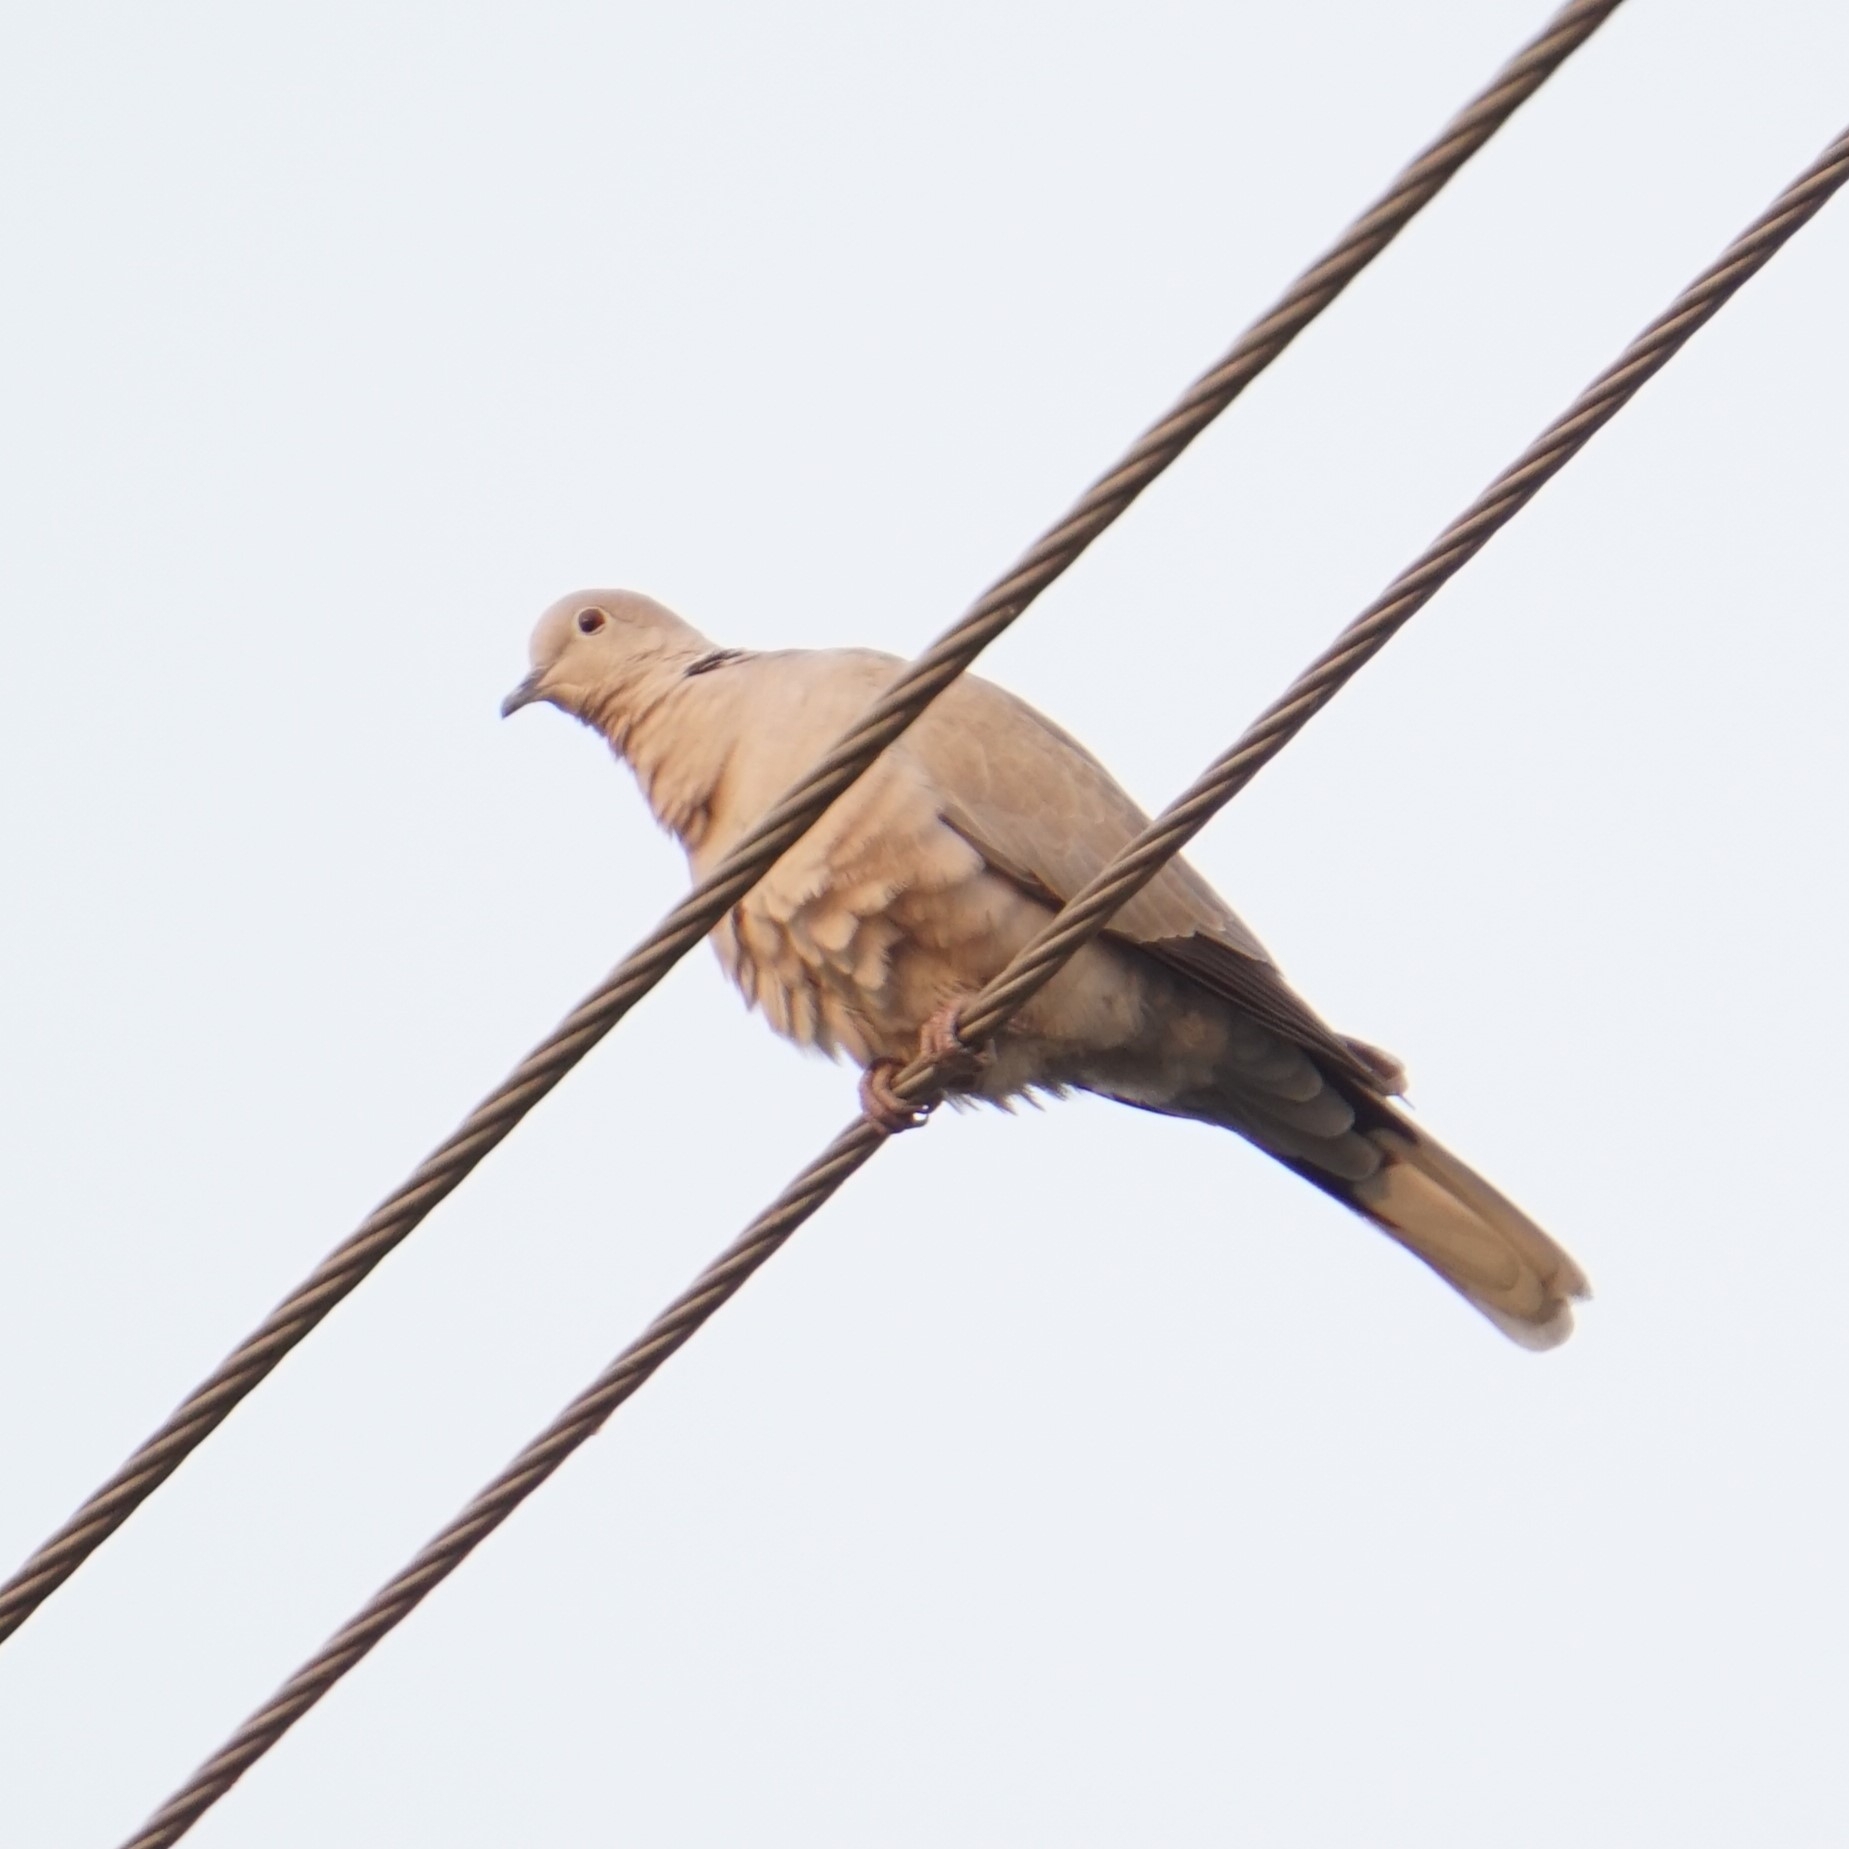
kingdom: Animalia
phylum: Chordata
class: Aves
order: Columbiformes
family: Columbidae
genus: Streptopelia
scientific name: Streptopelia decaocto
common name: Eurasian collared dove
